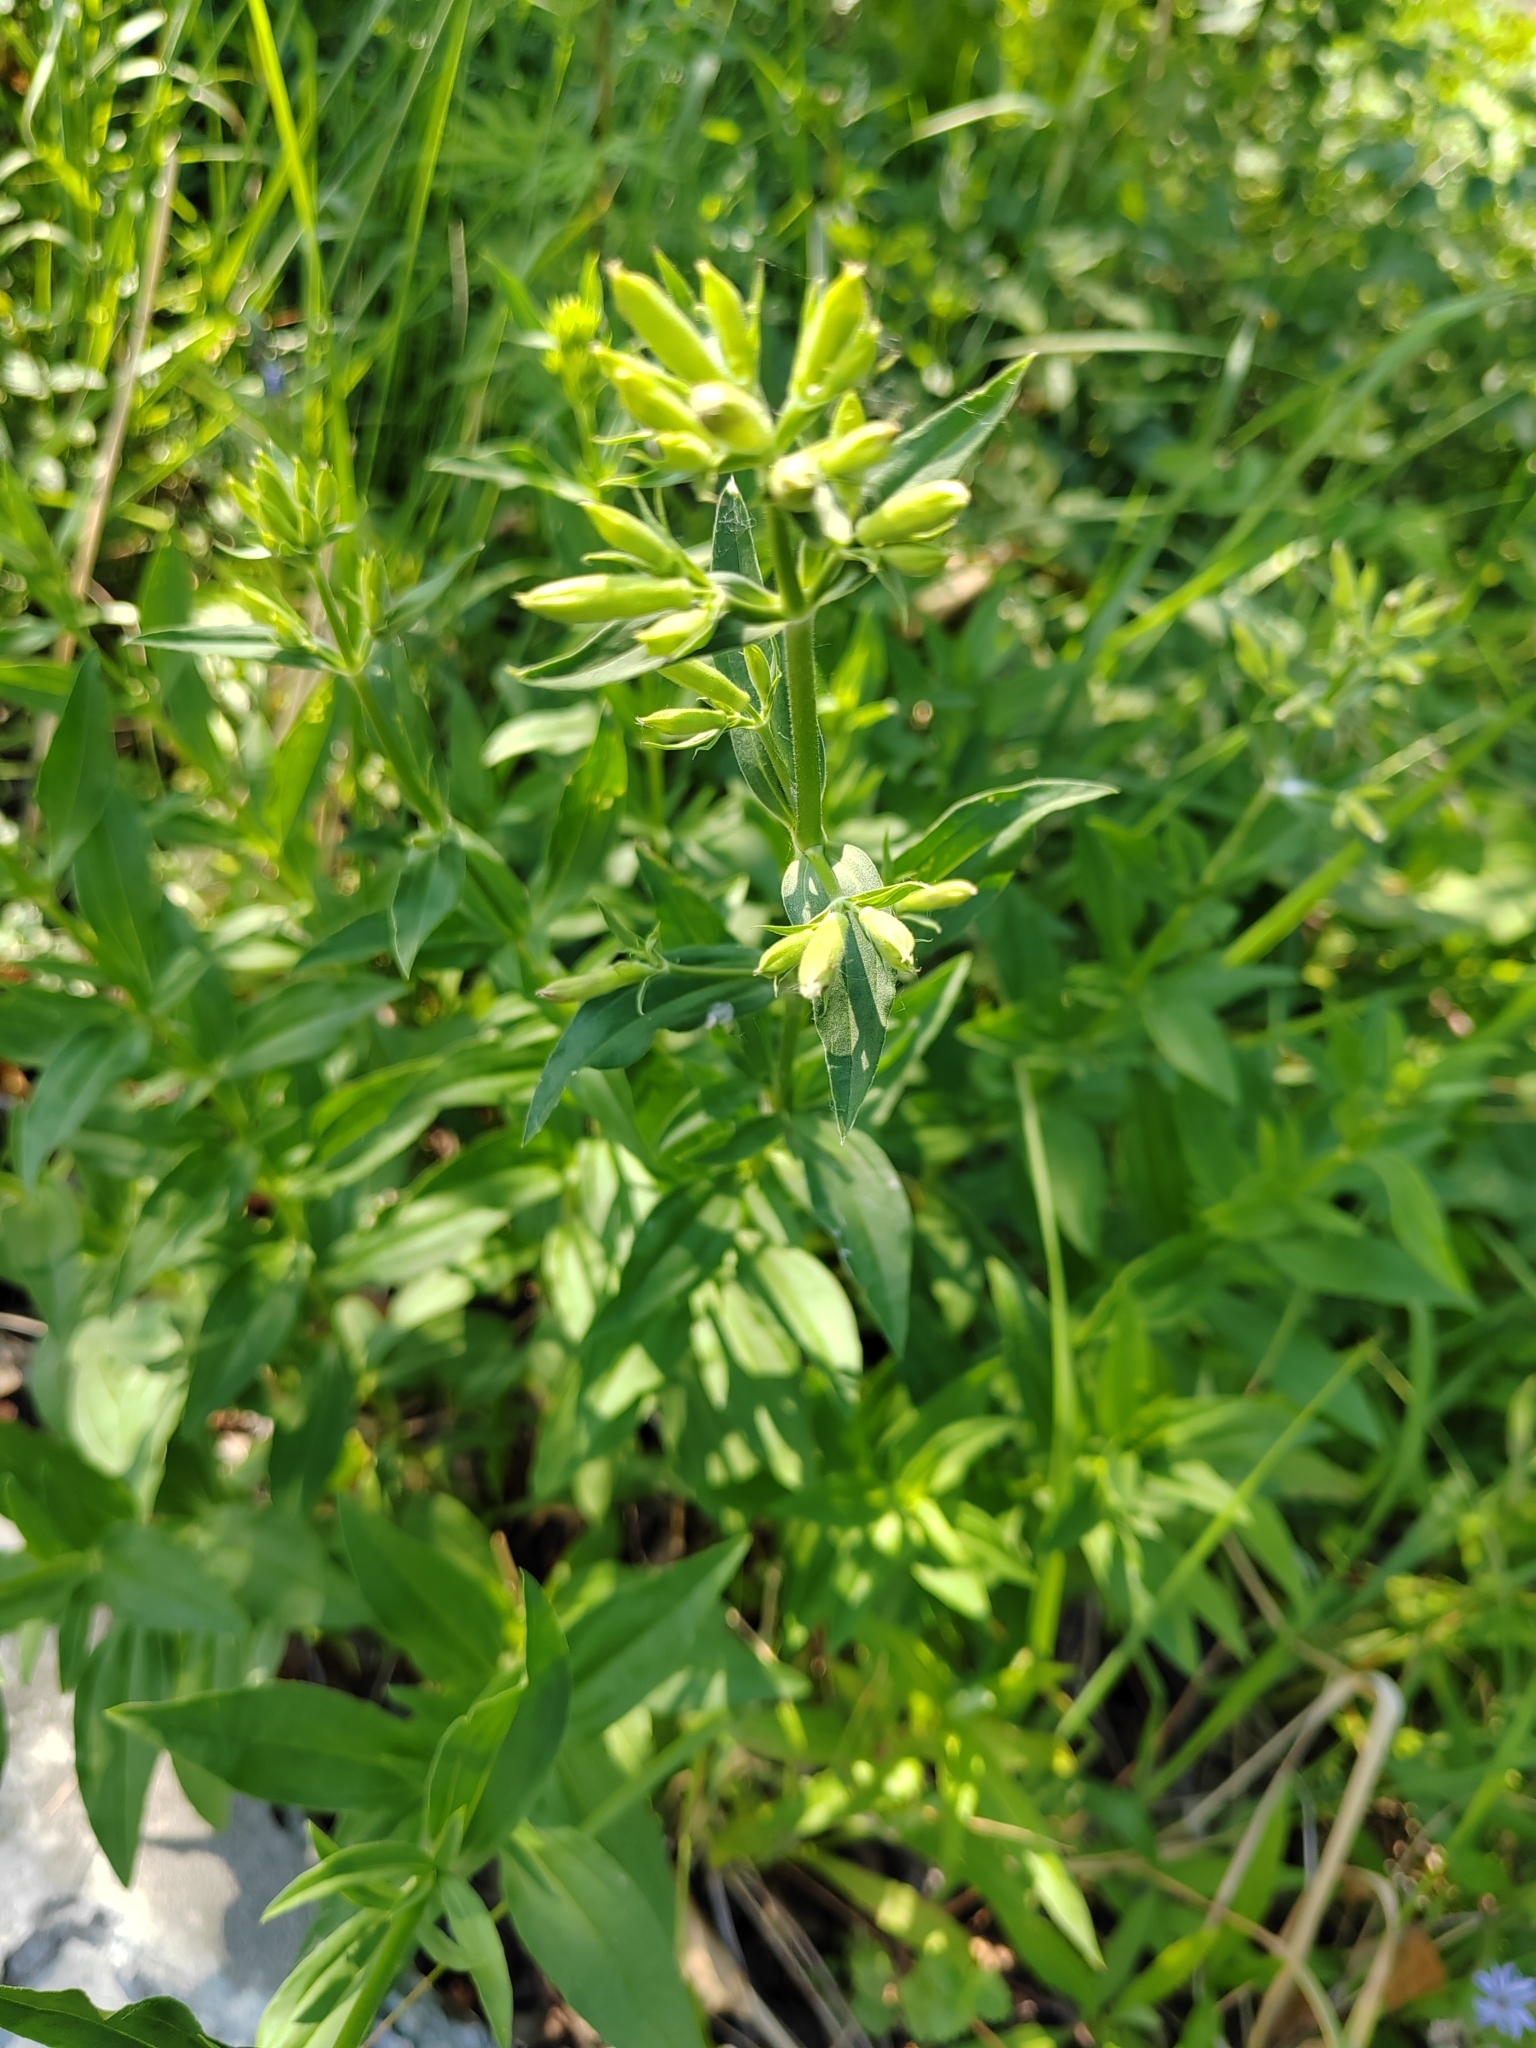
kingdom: Plantae
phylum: Tracheophyta
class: Magnoliopsida
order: Caryophyllales
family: Caryophyllaceae
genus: Saponaria
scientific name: Saponaria officinalis
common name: Soapwort
